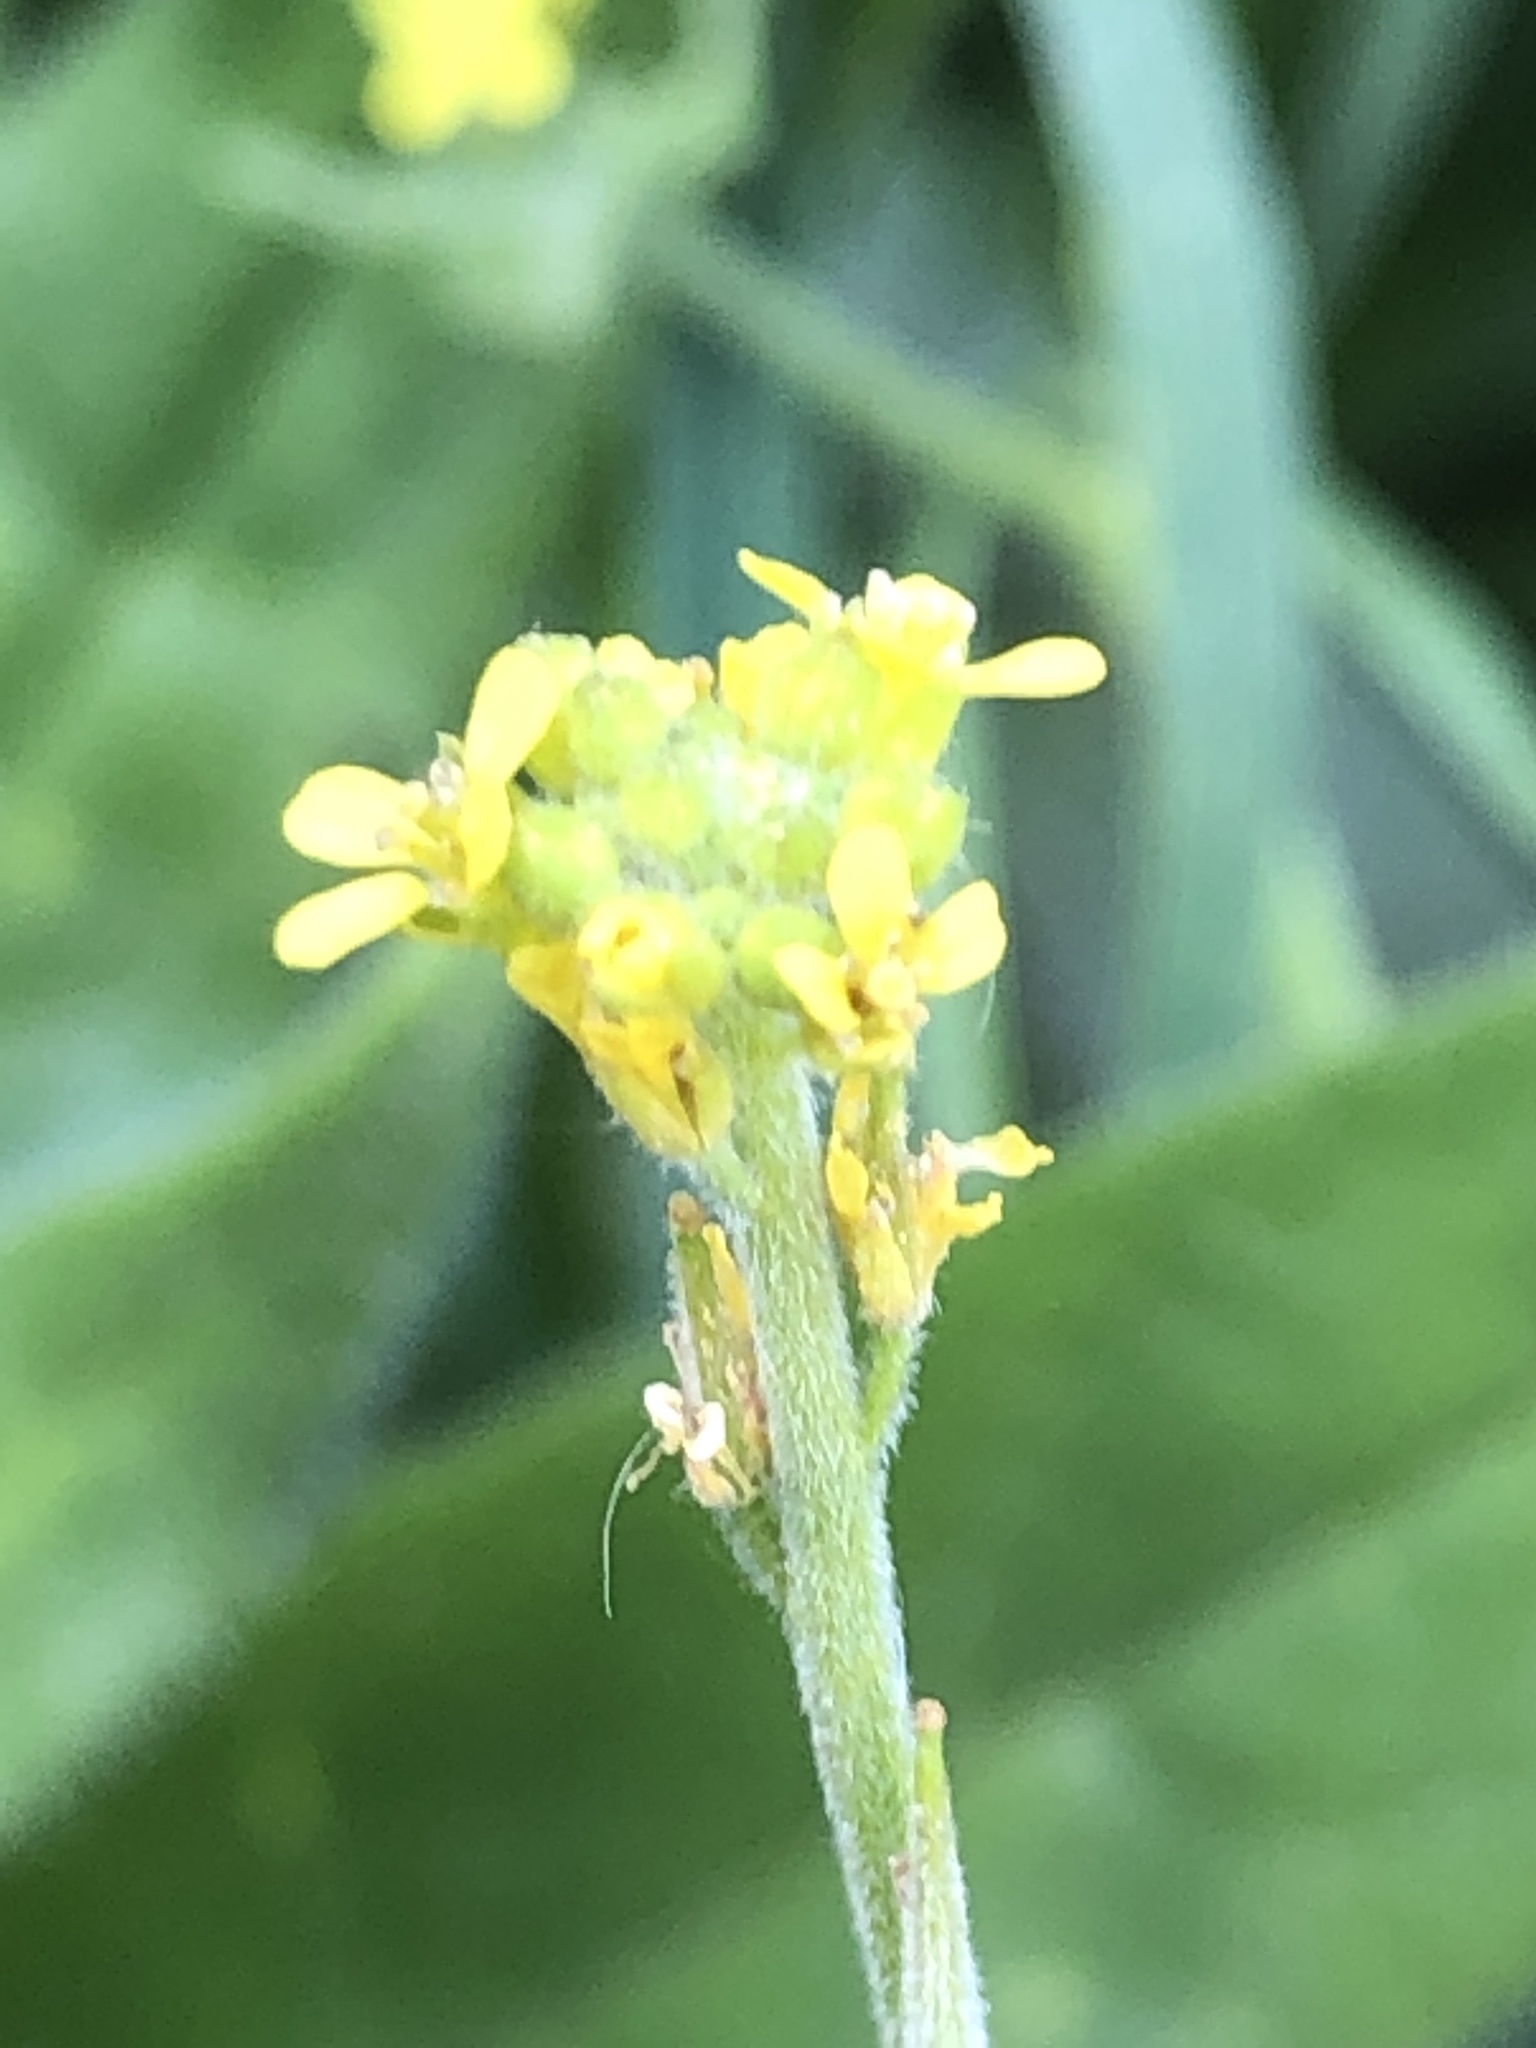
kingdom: Plantae
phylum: Tracheophyta
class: Magnoliopsida
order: Brassicales
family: Brassicaceae
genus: Sisymbrium
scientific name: Sisymbrium officinale
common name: Hedge mustard
